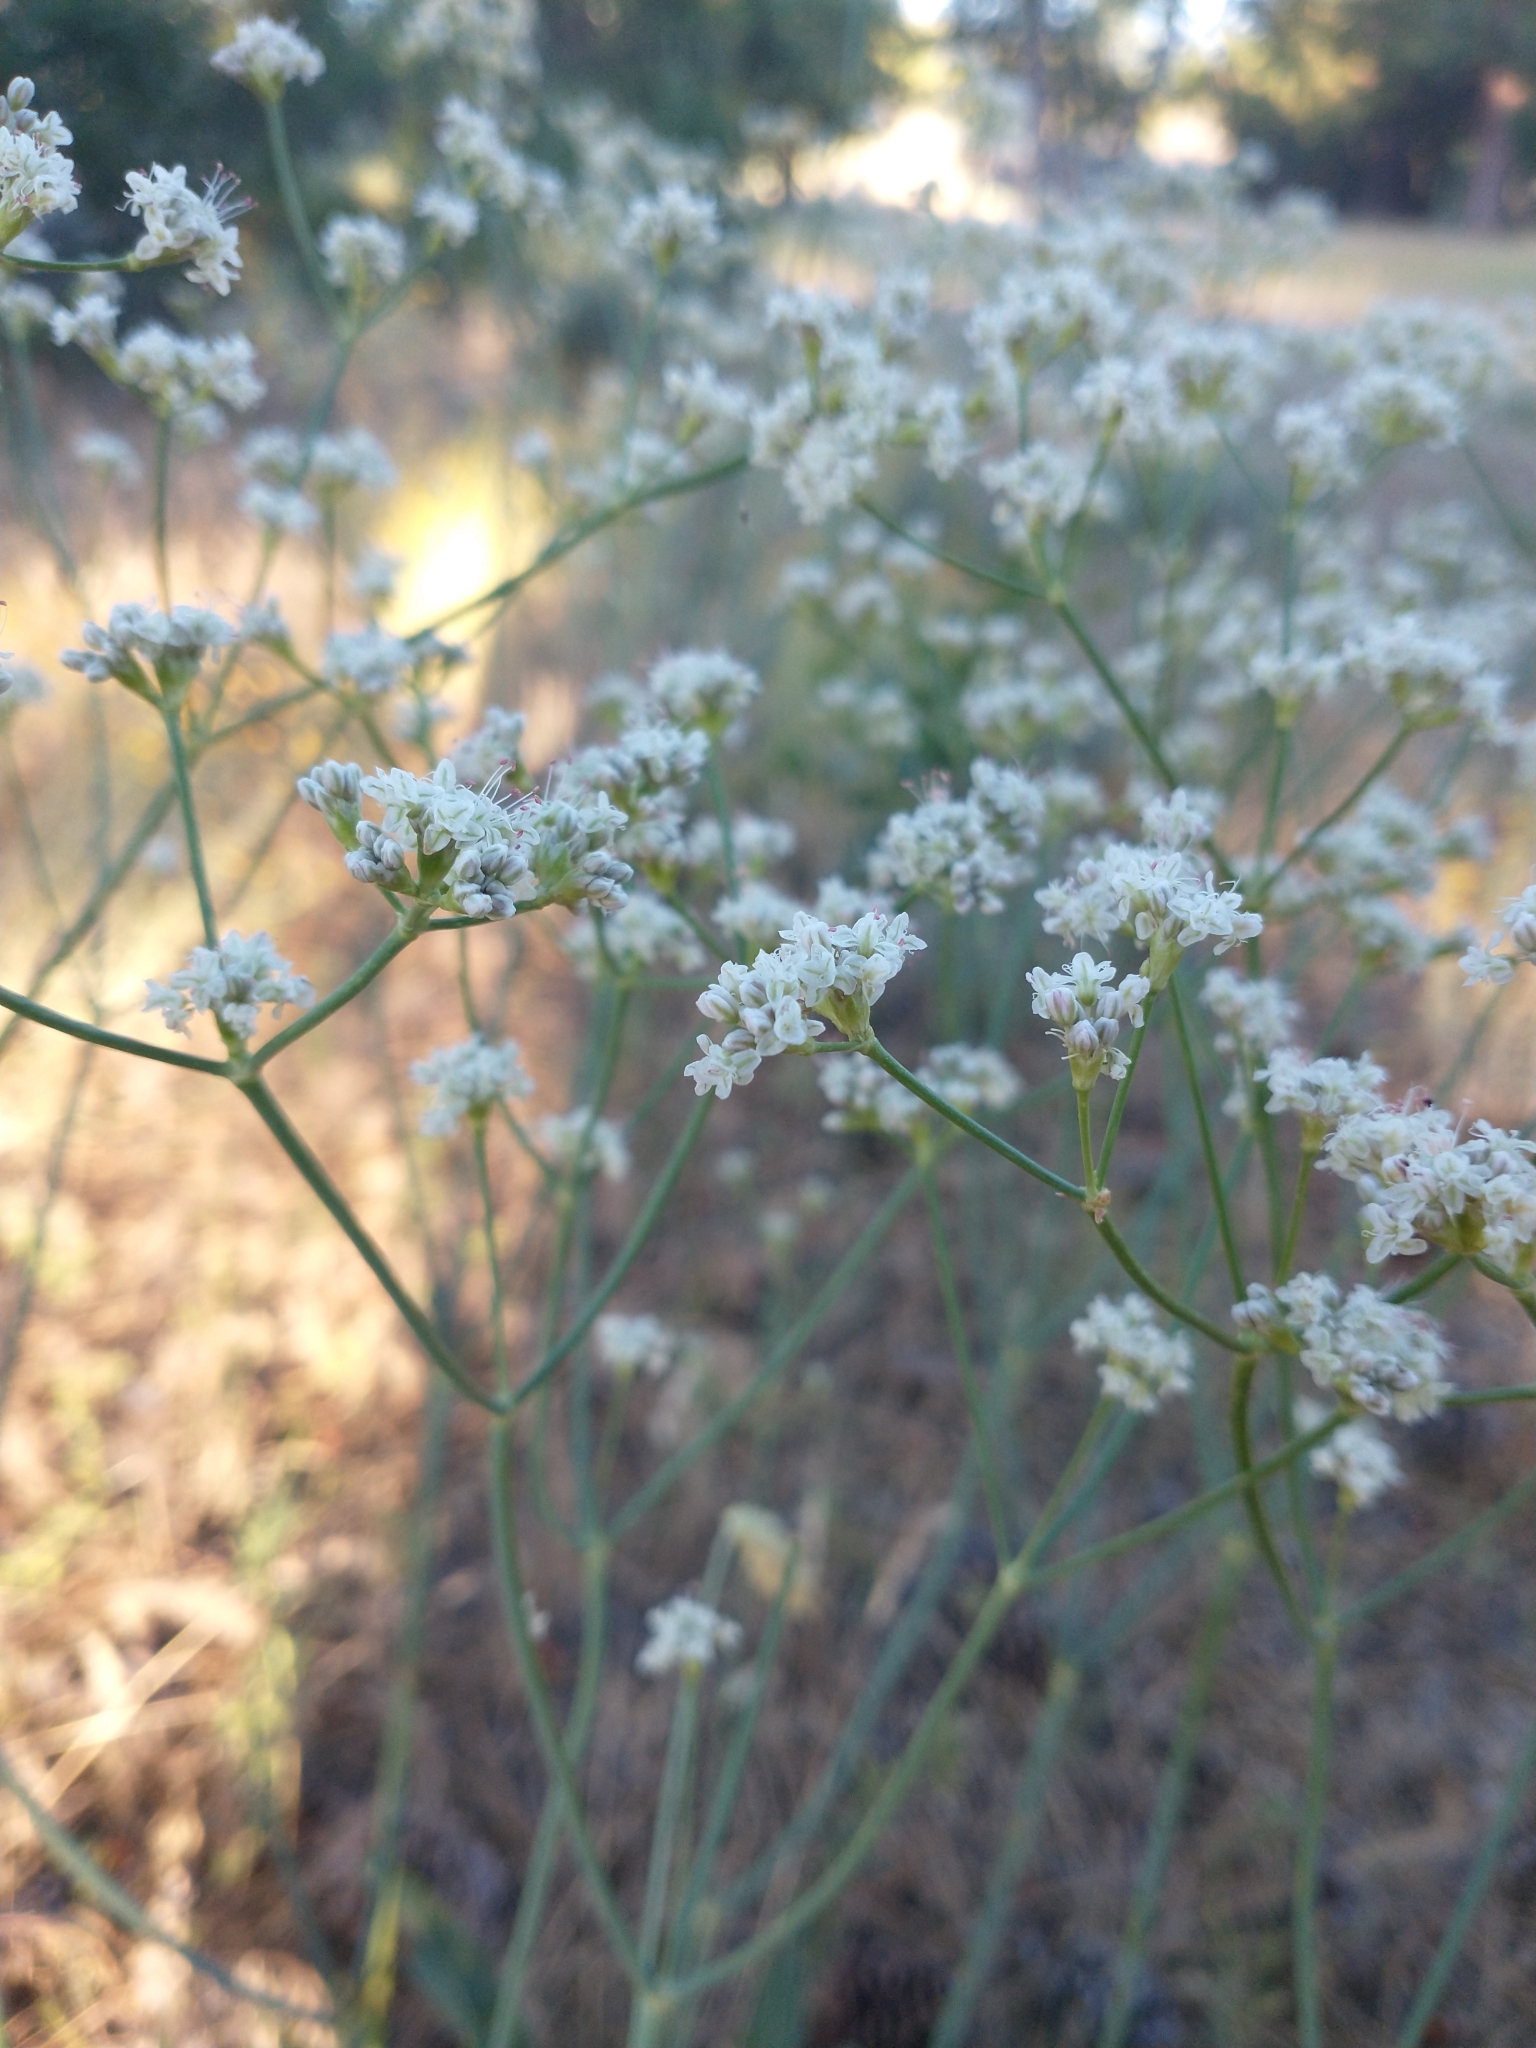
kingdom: Plantae
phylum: Tracheophyta
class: Magnoliopsida
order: Caryophyllales
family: Polygonaceae
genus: Eriogonum
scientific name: Eriogonum elatum
